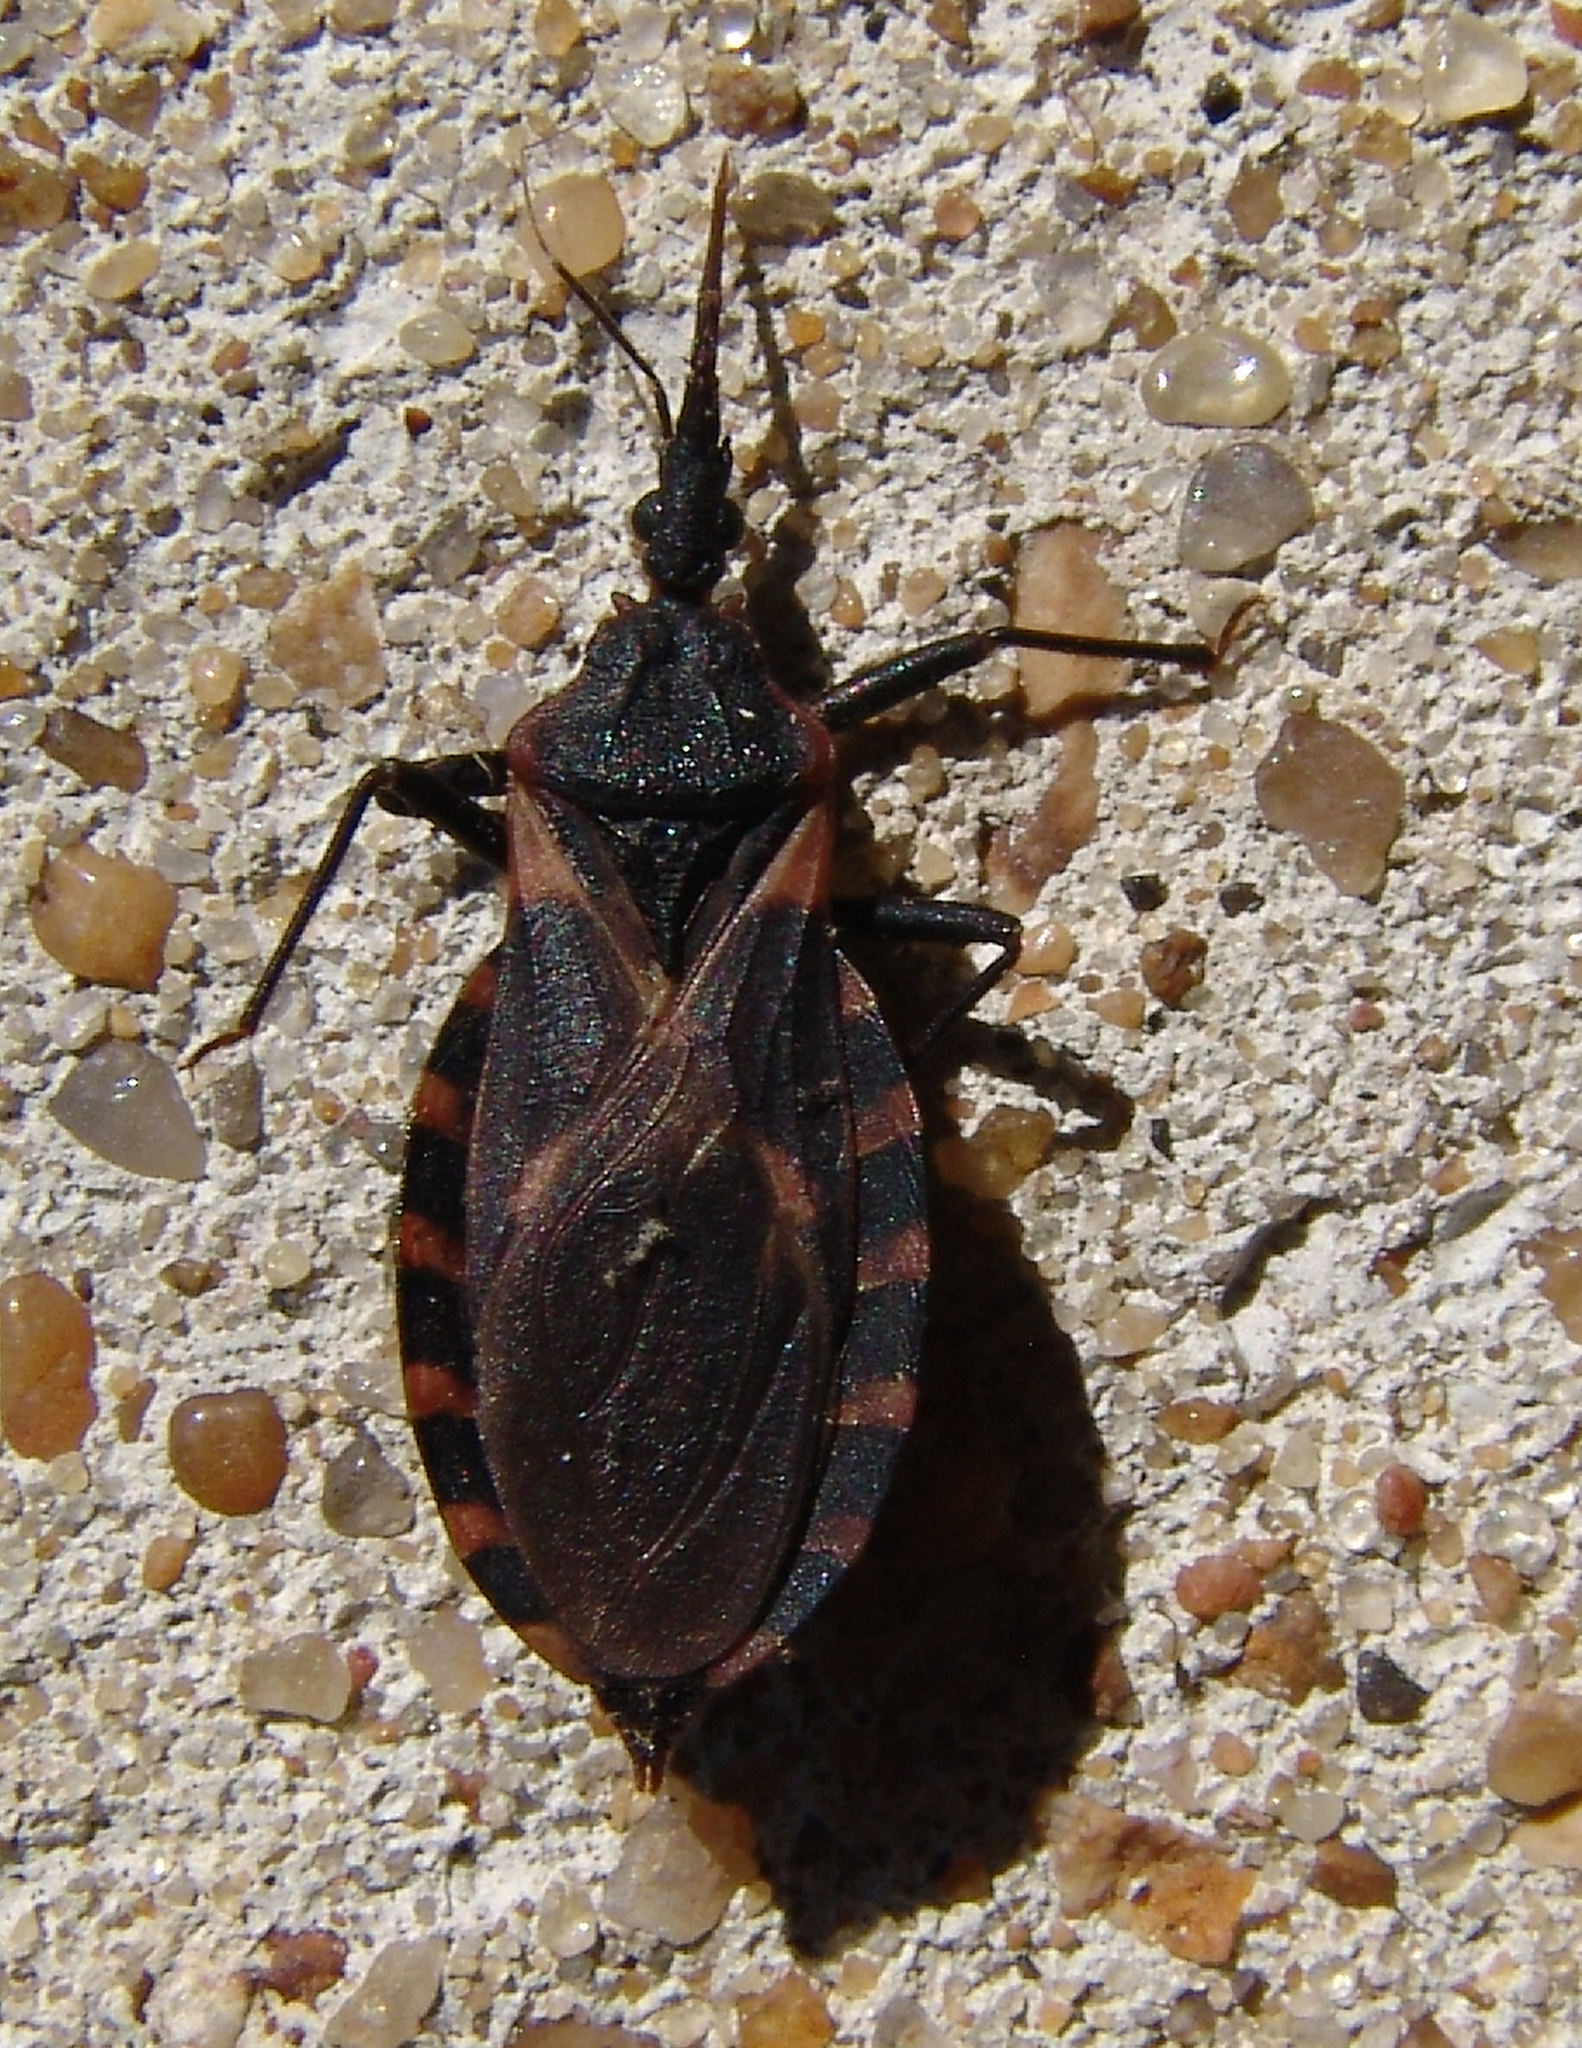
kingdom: Animalia
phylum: Arthropoda
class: Insecta
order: Hemiptera
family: Reduviidae
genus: Triatoma
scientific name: Triatoma sanguisuga
